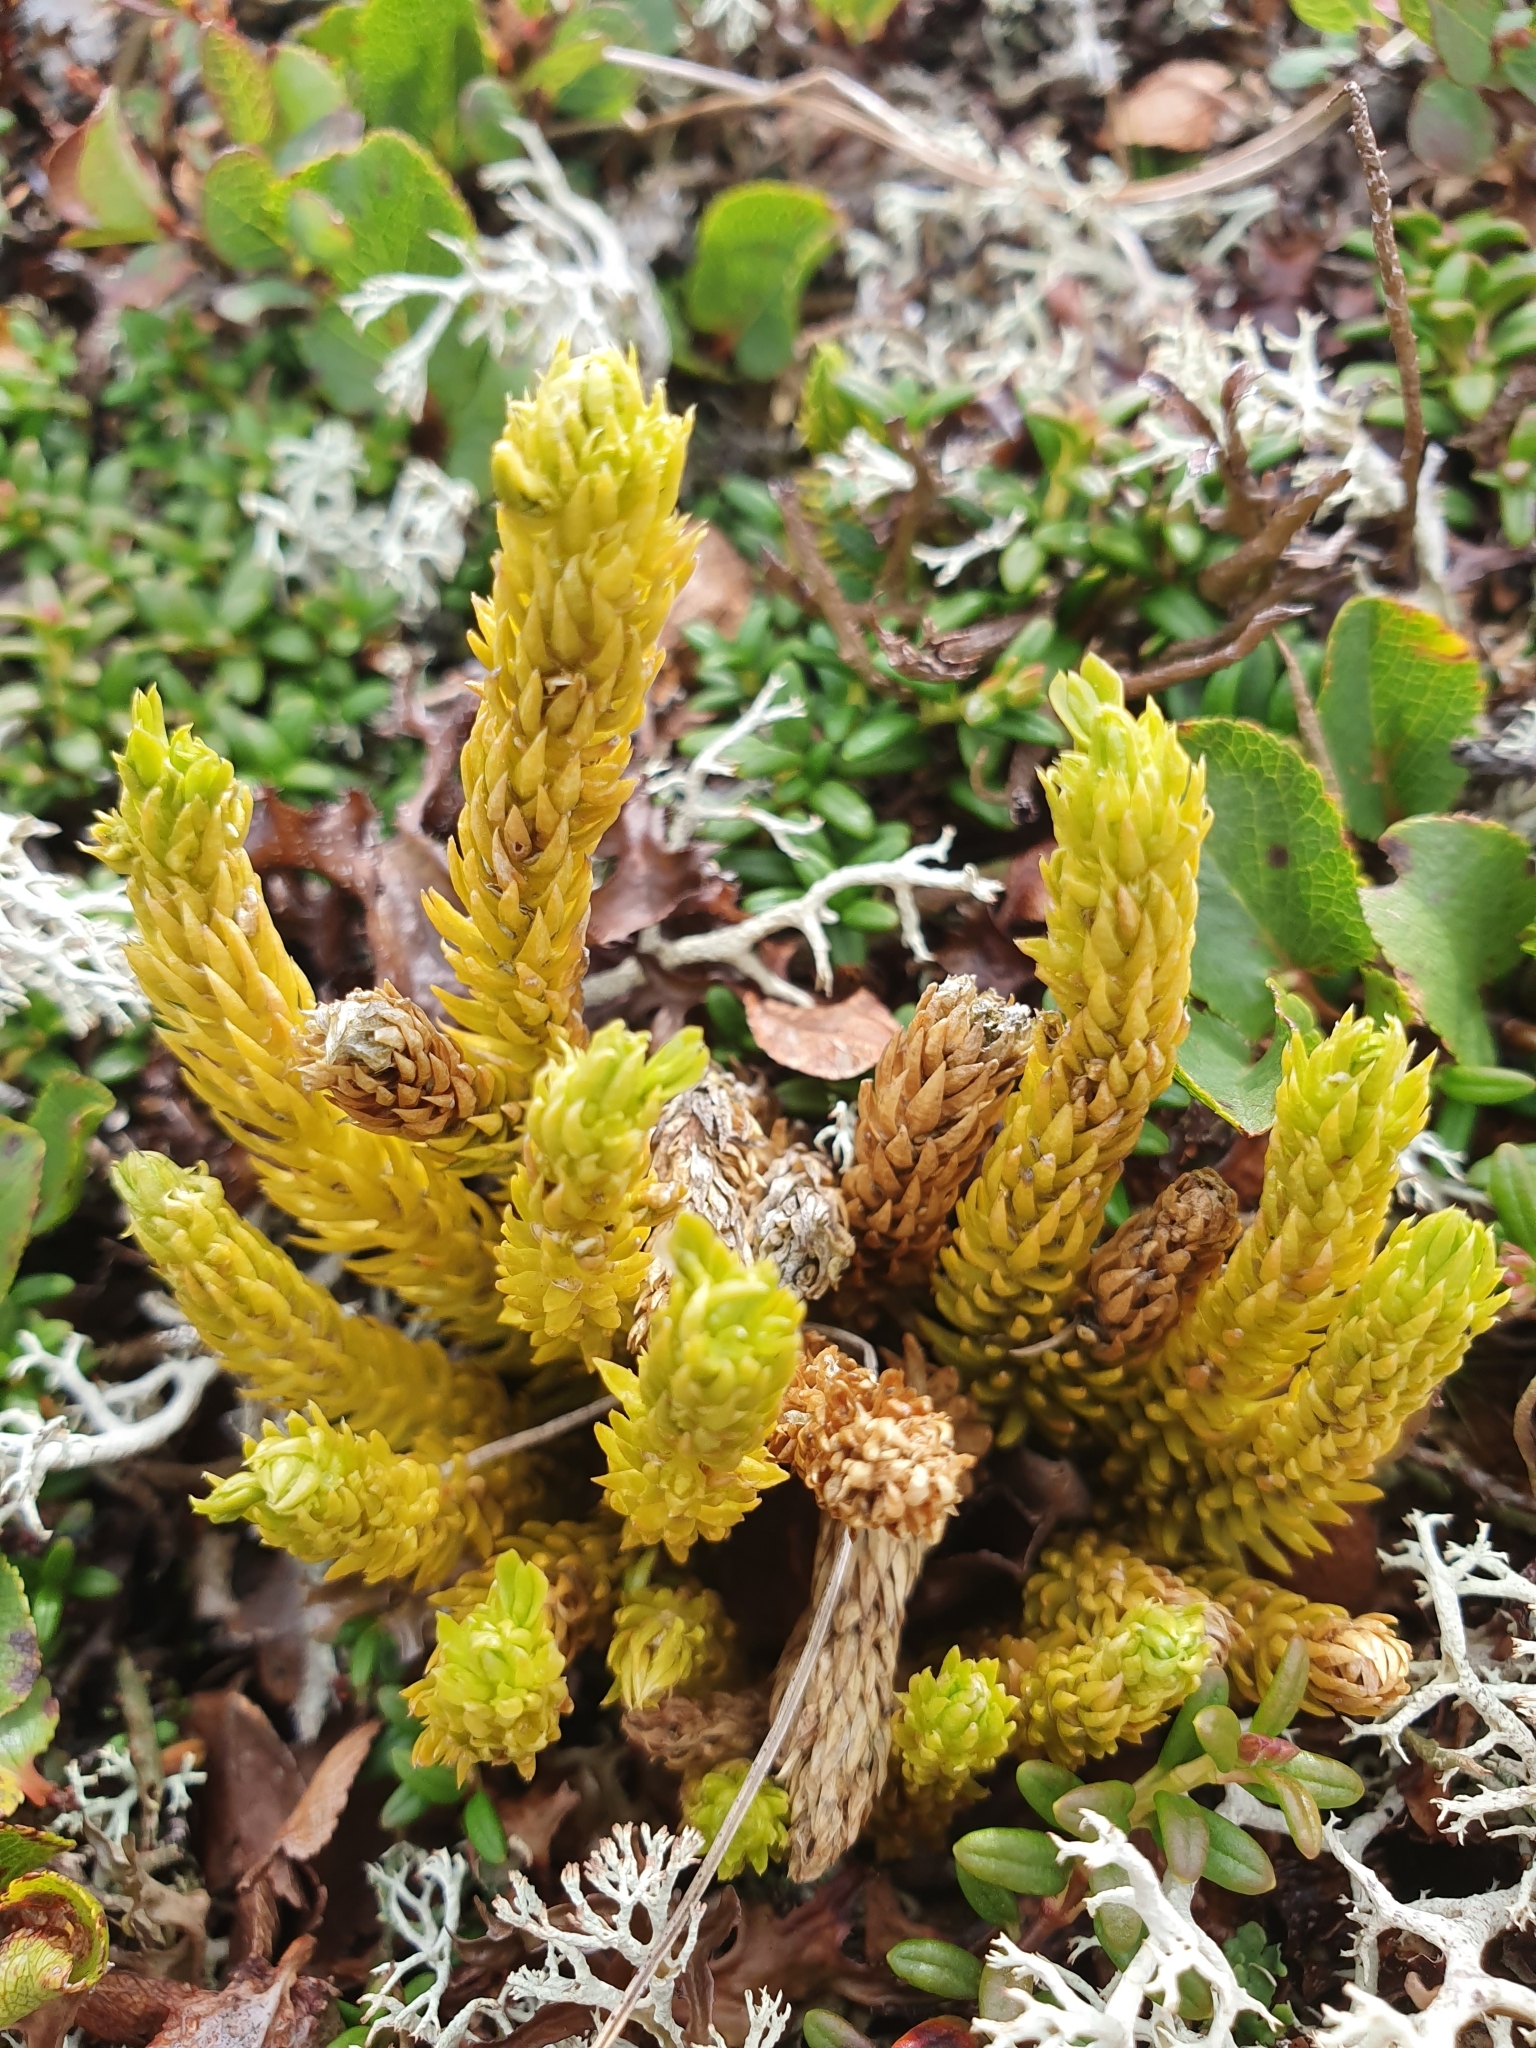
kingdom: Plantae
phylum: Tracheophyta
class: Lycopodiopsida
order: Lycopodiales
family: Lycopodiaceae
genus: Huperzia
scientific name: Huperzia selago
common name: Northern firmoss
